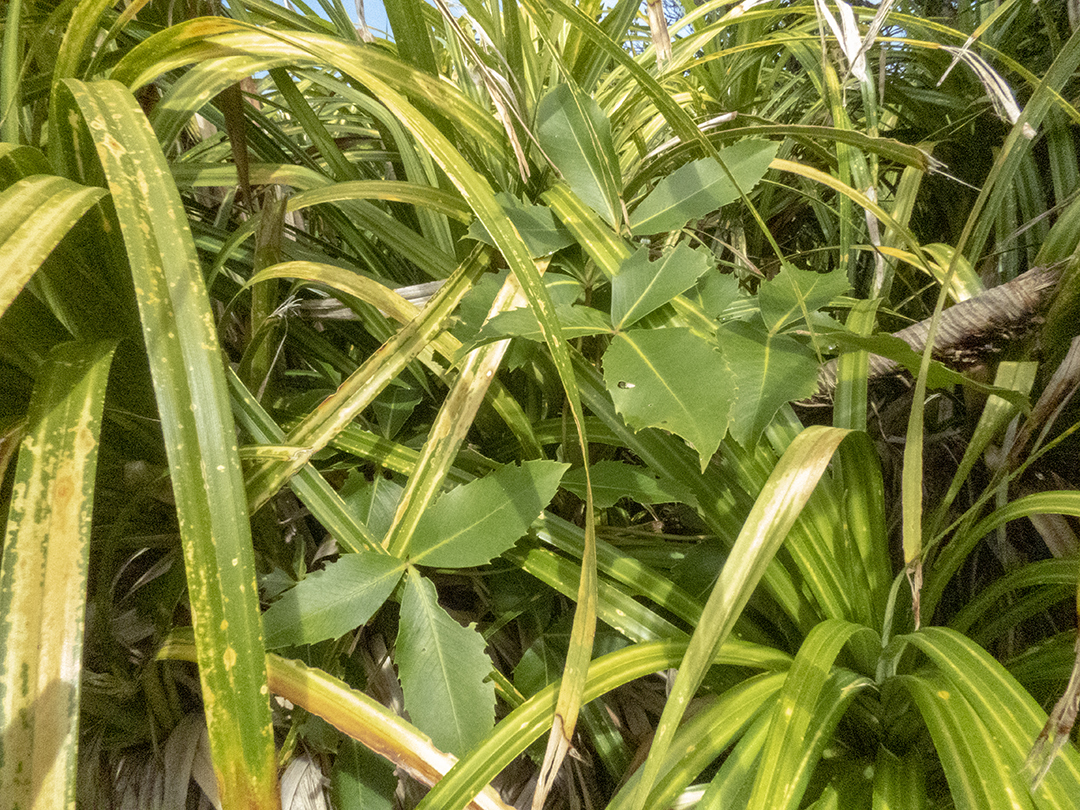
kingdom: Plantae
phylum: Tracheophyta
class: Magnoliopsida
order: Apiales
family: Araliaceae
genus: Neopanax
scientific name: Neopanax colensoi
